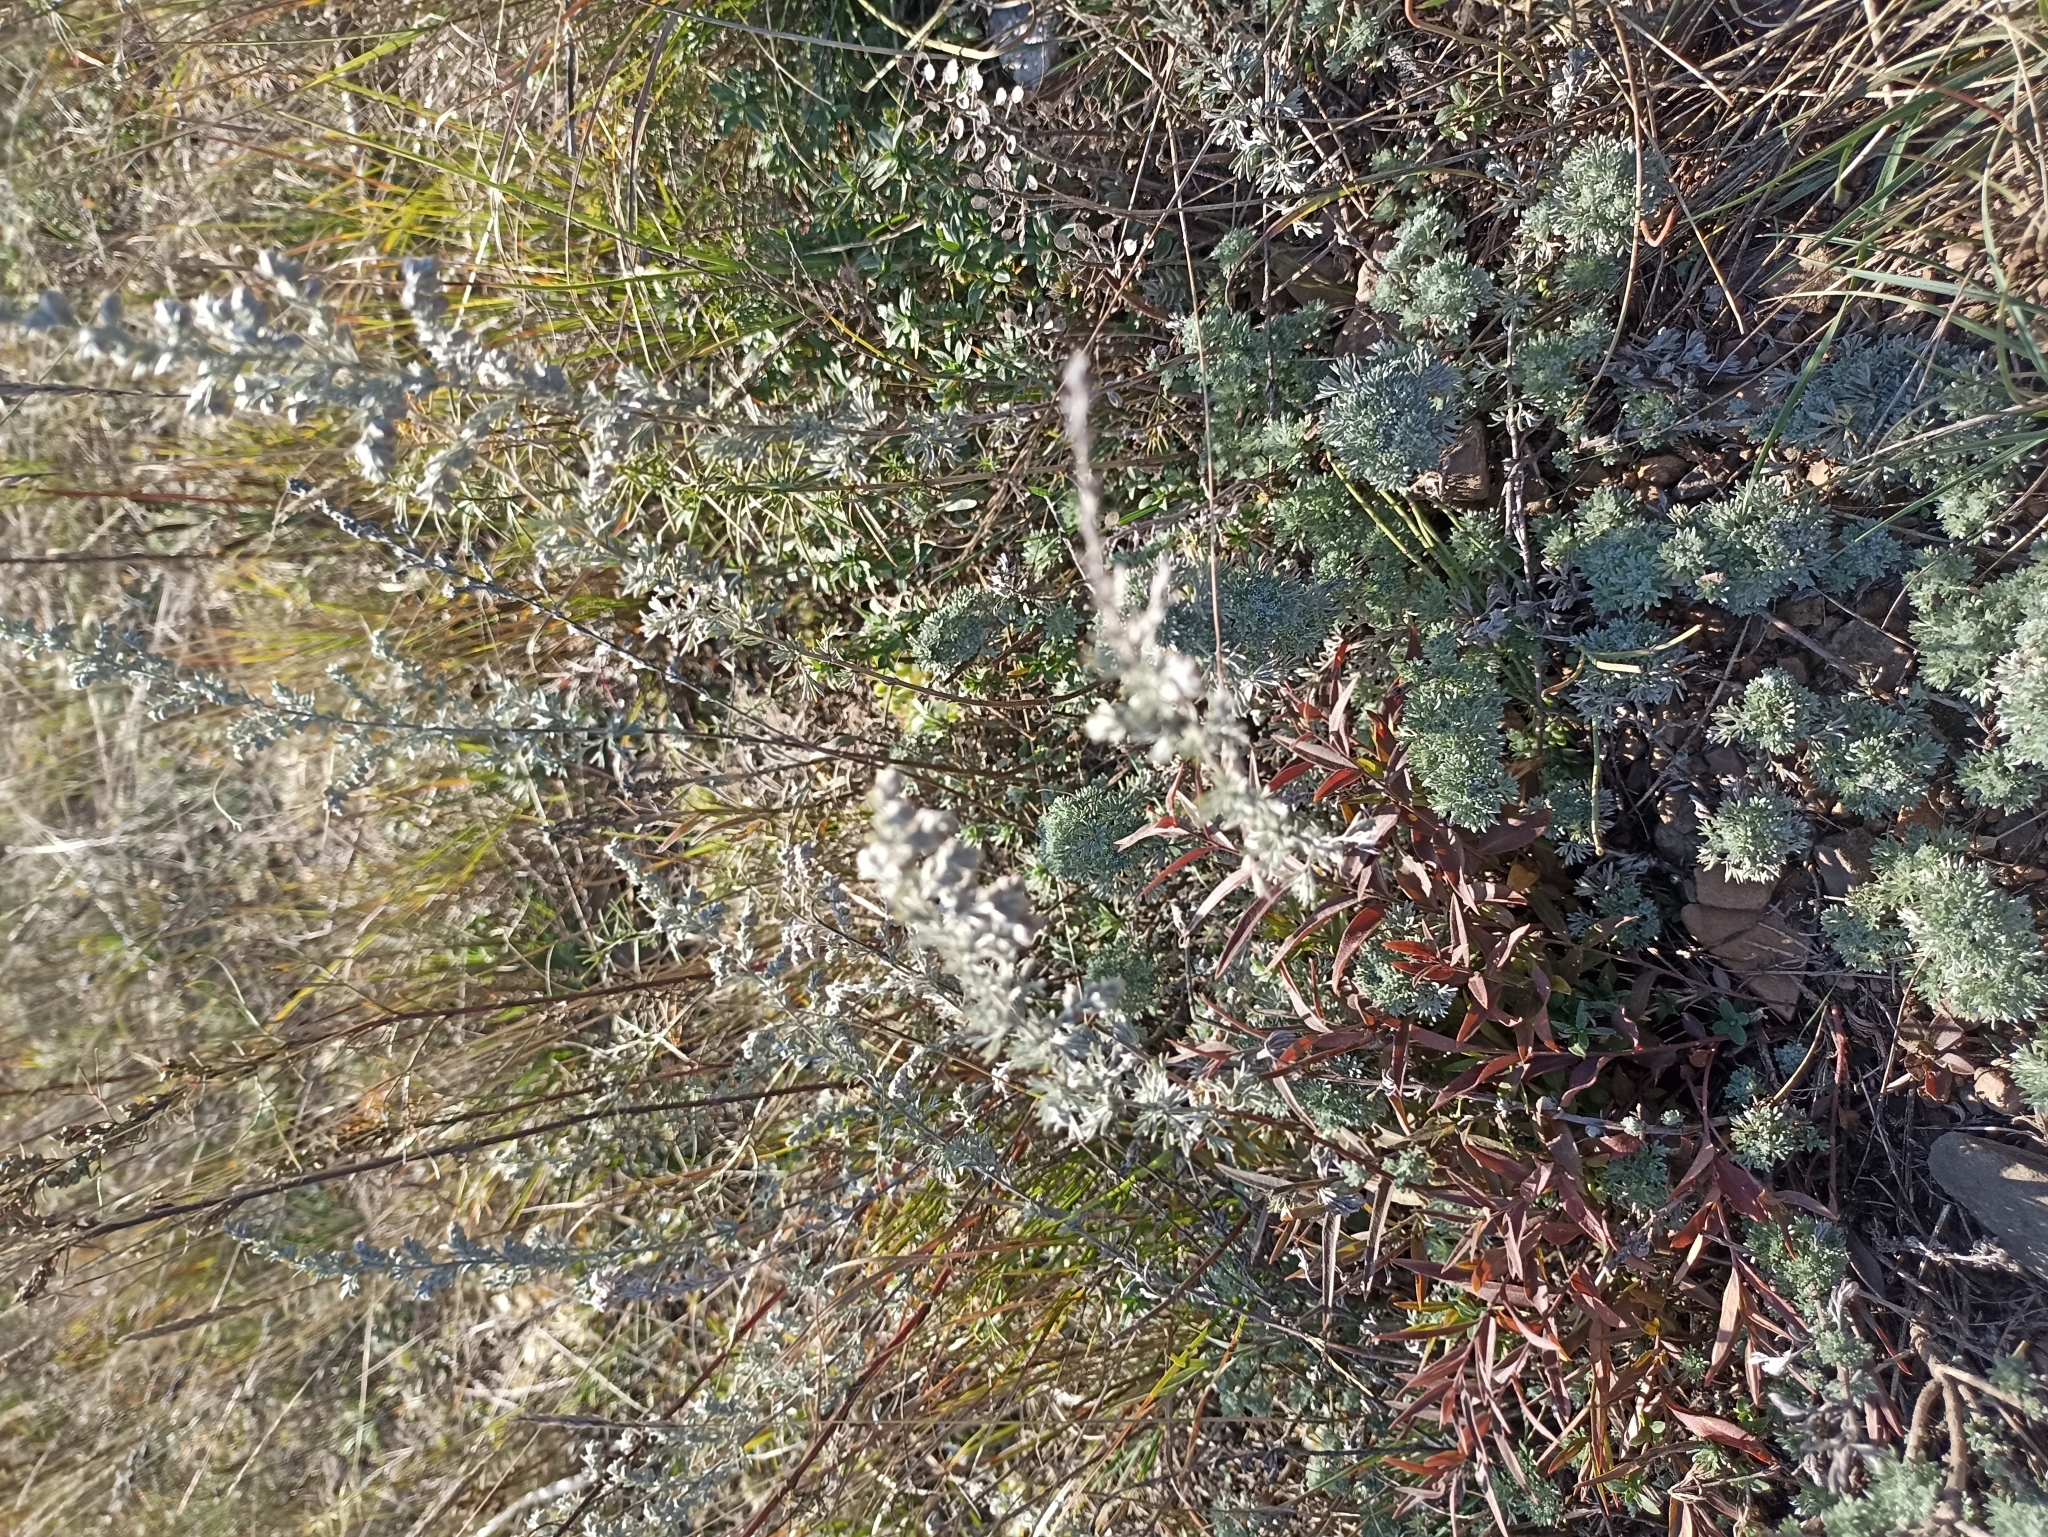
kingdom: Plantae
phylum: Tracheophyta
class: Magnoliopsida
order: Asterales
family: Asteraceae
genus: Artemisia
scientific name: Artemisia frigida
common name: Prairie sagewort
